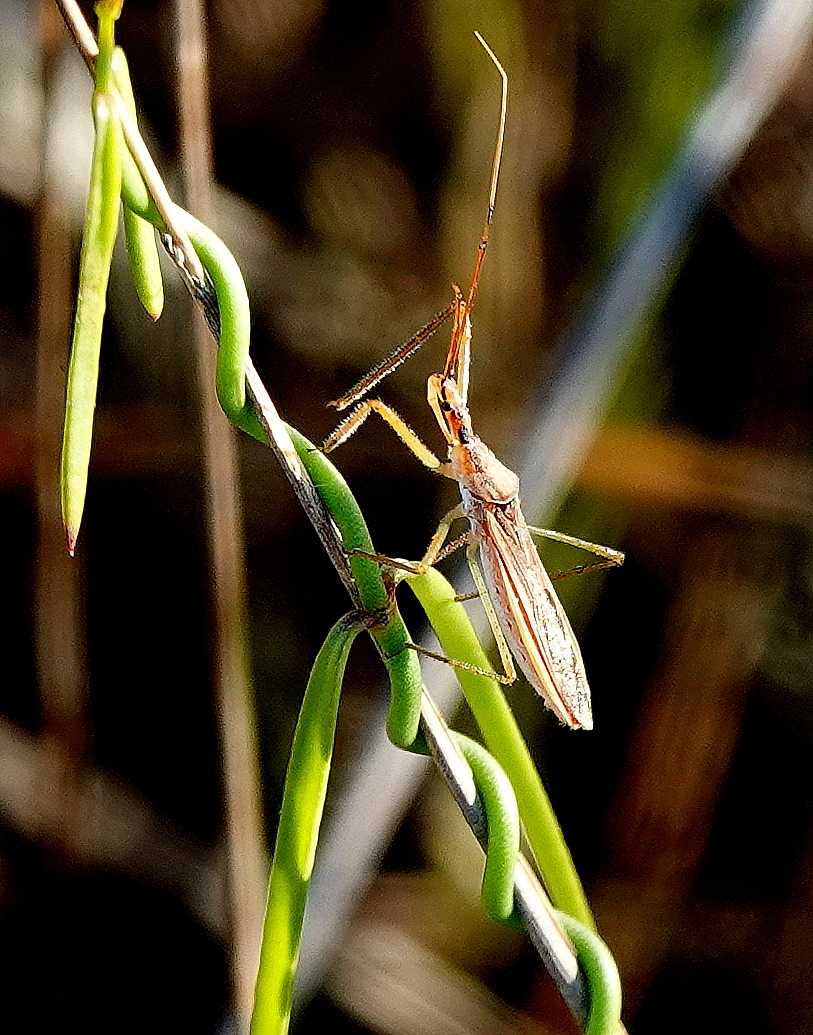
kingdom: Animalia
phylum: Arthropoda
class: Insecta
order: Hemiptera
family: Reduviidae
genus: Zelus
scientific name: Zelus cervicalis
